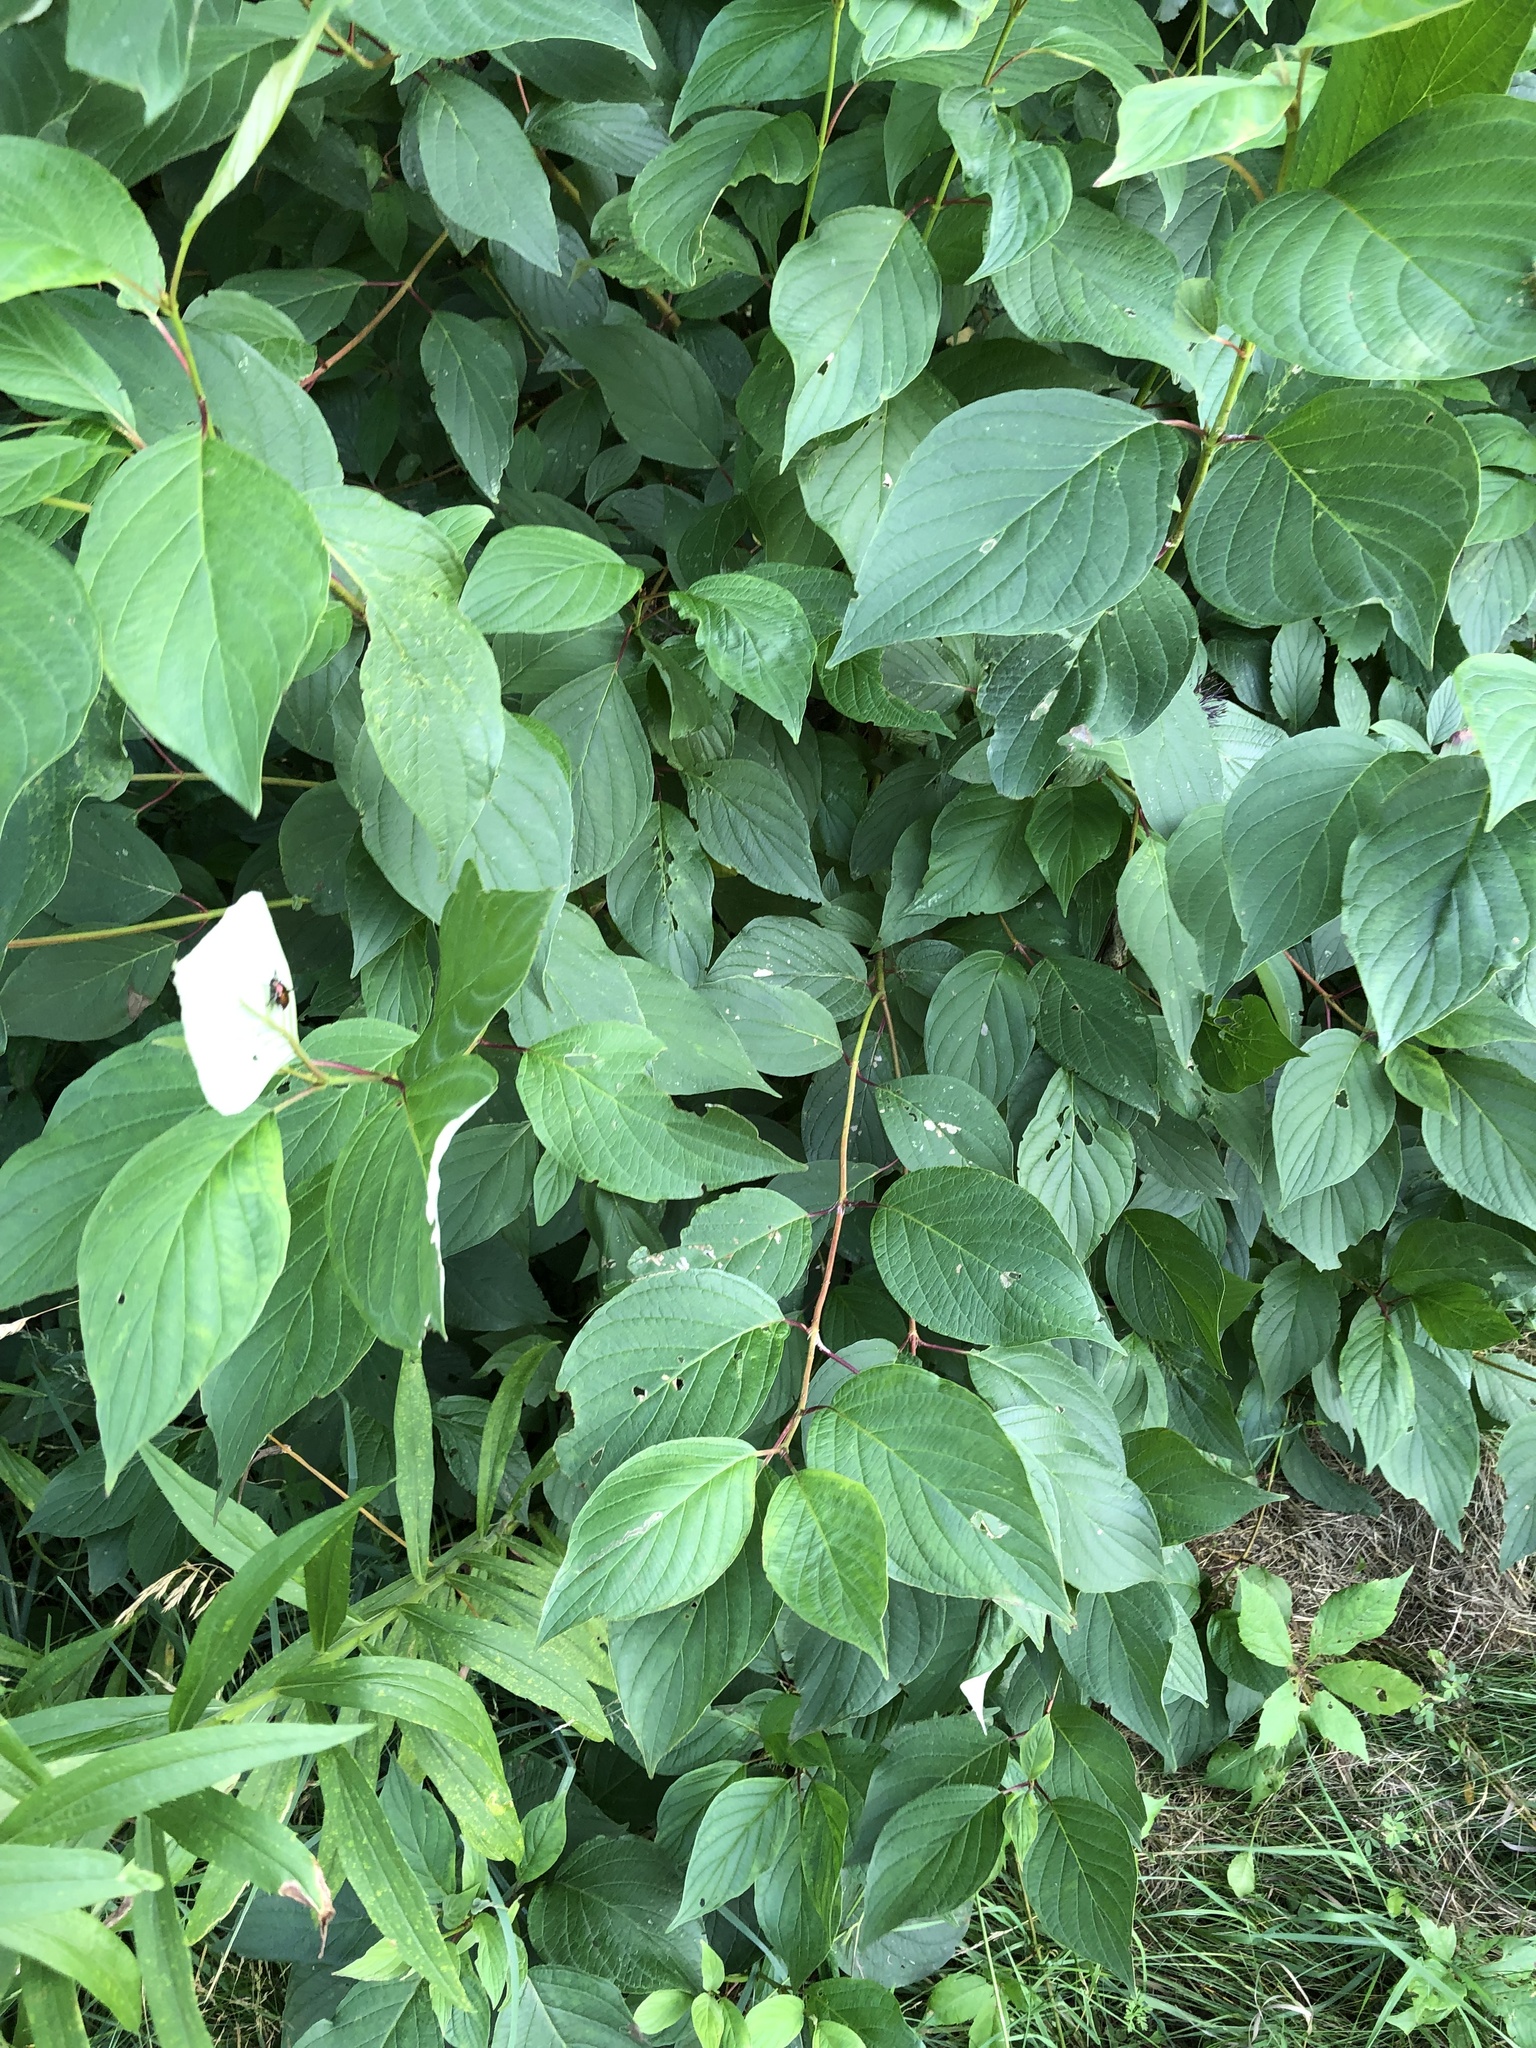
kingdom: Plantae
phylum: Tracheophyta
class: Magnoliopsida
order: Cornales
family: Cornaceae
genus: Cornus
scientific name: Cornus sericea
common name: Red-osier dogwood
